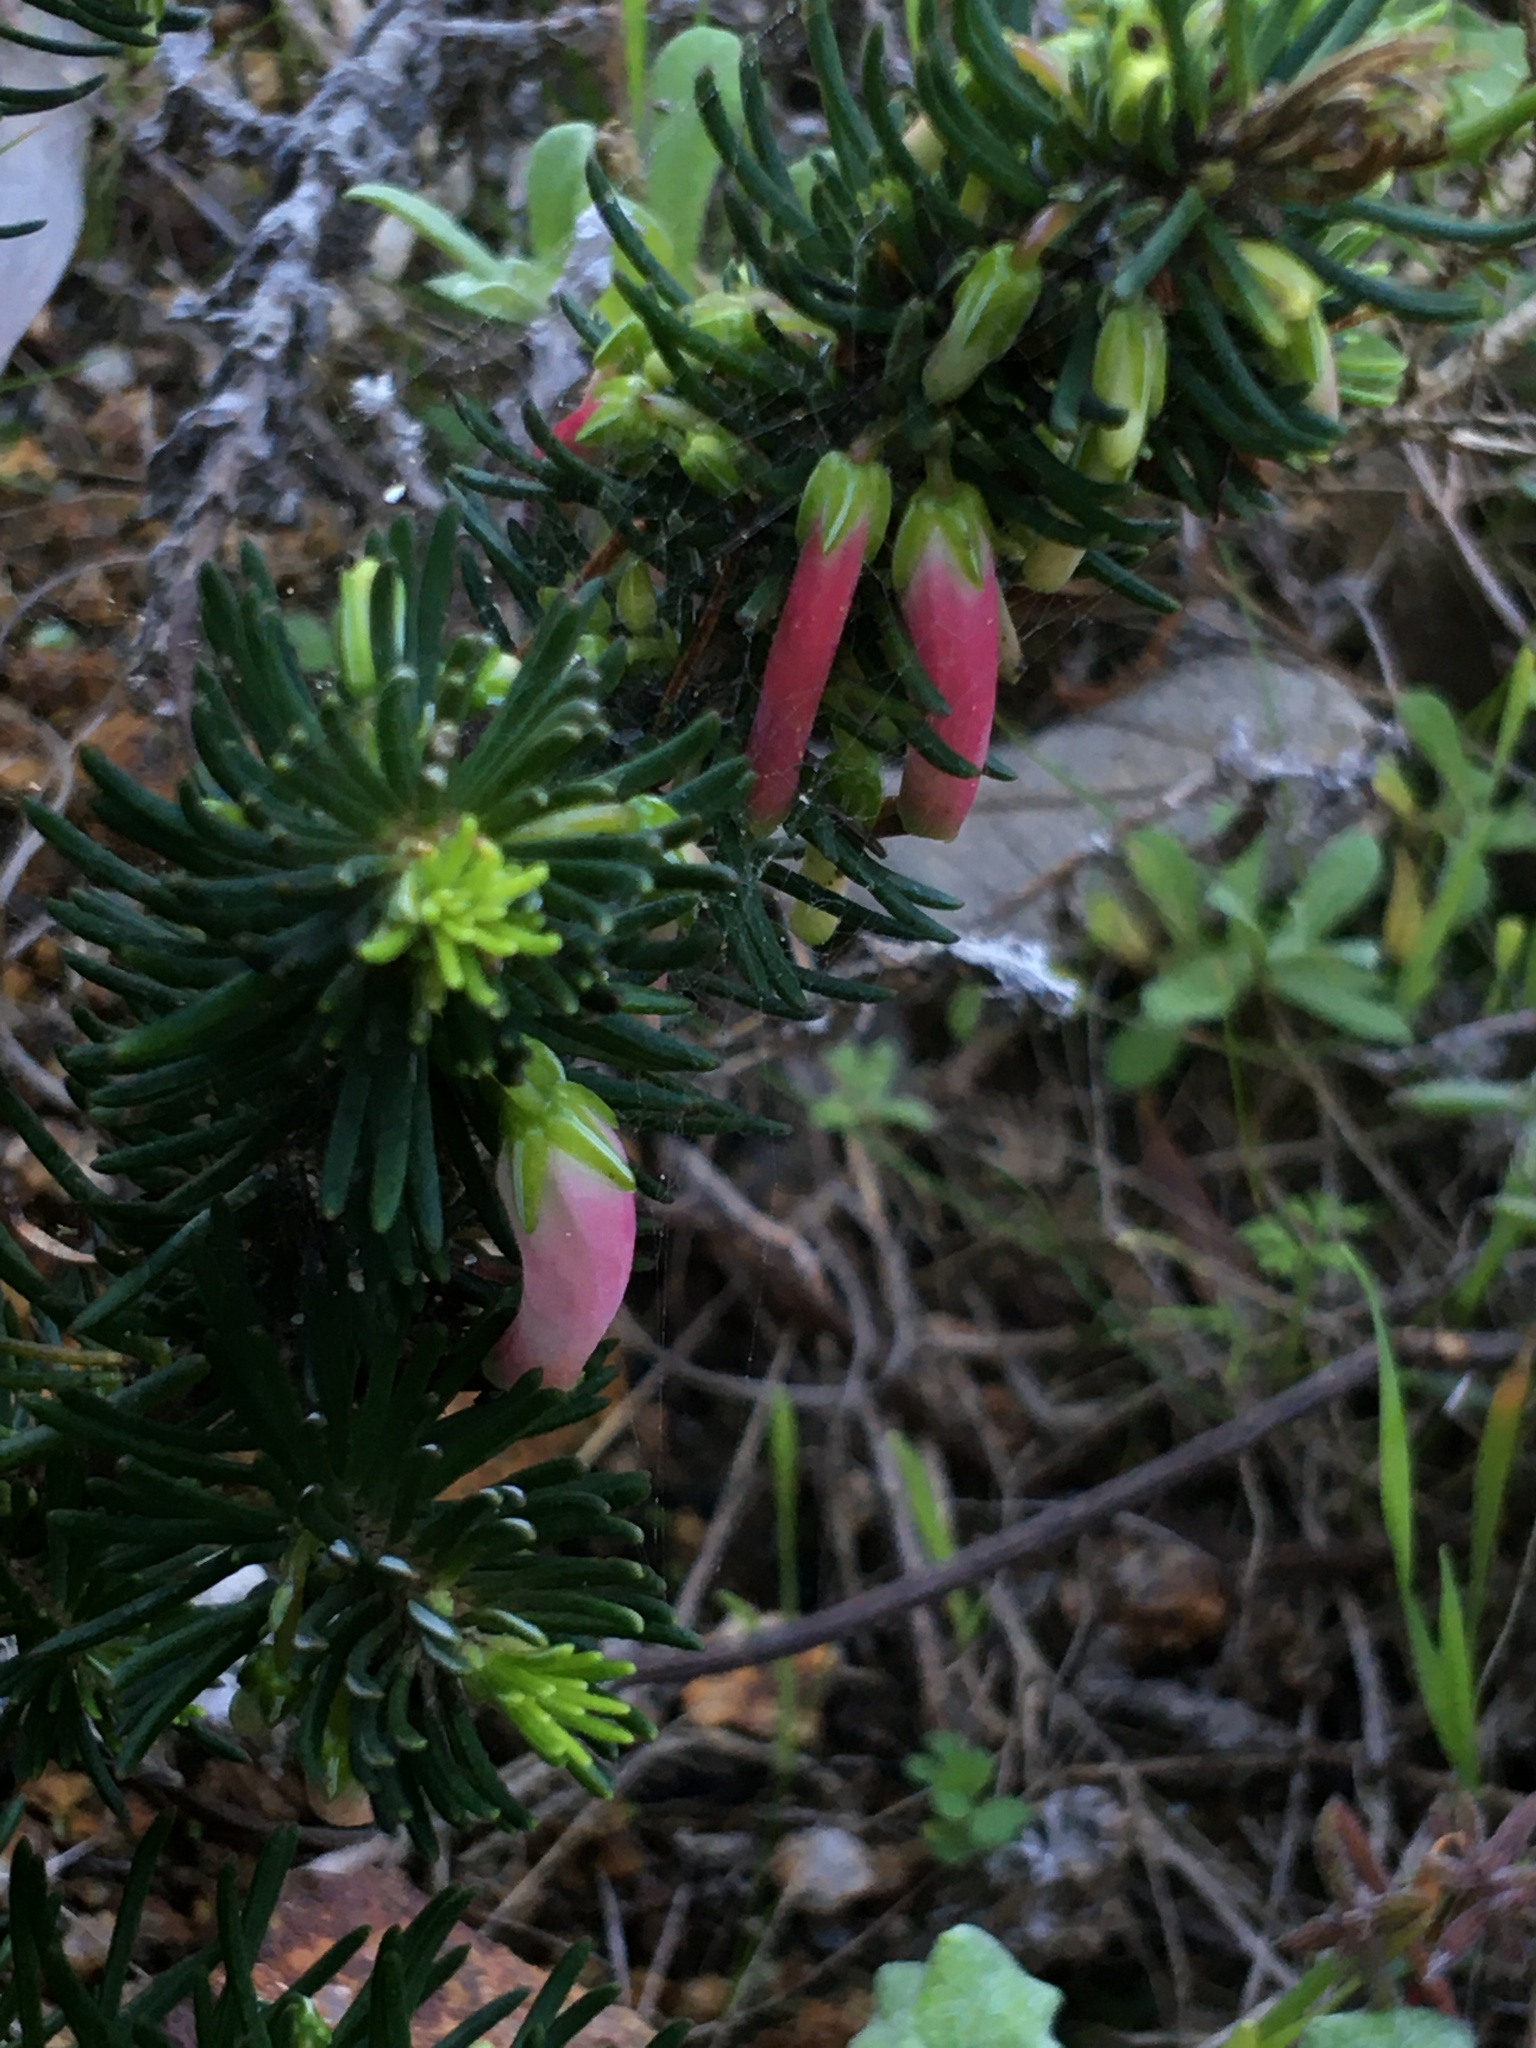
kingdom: Plantae
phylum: Tracheophyta
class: Magnoliopsida
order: Ericales
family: Ericaceae
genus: Erica
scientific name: Erica plukenetii
